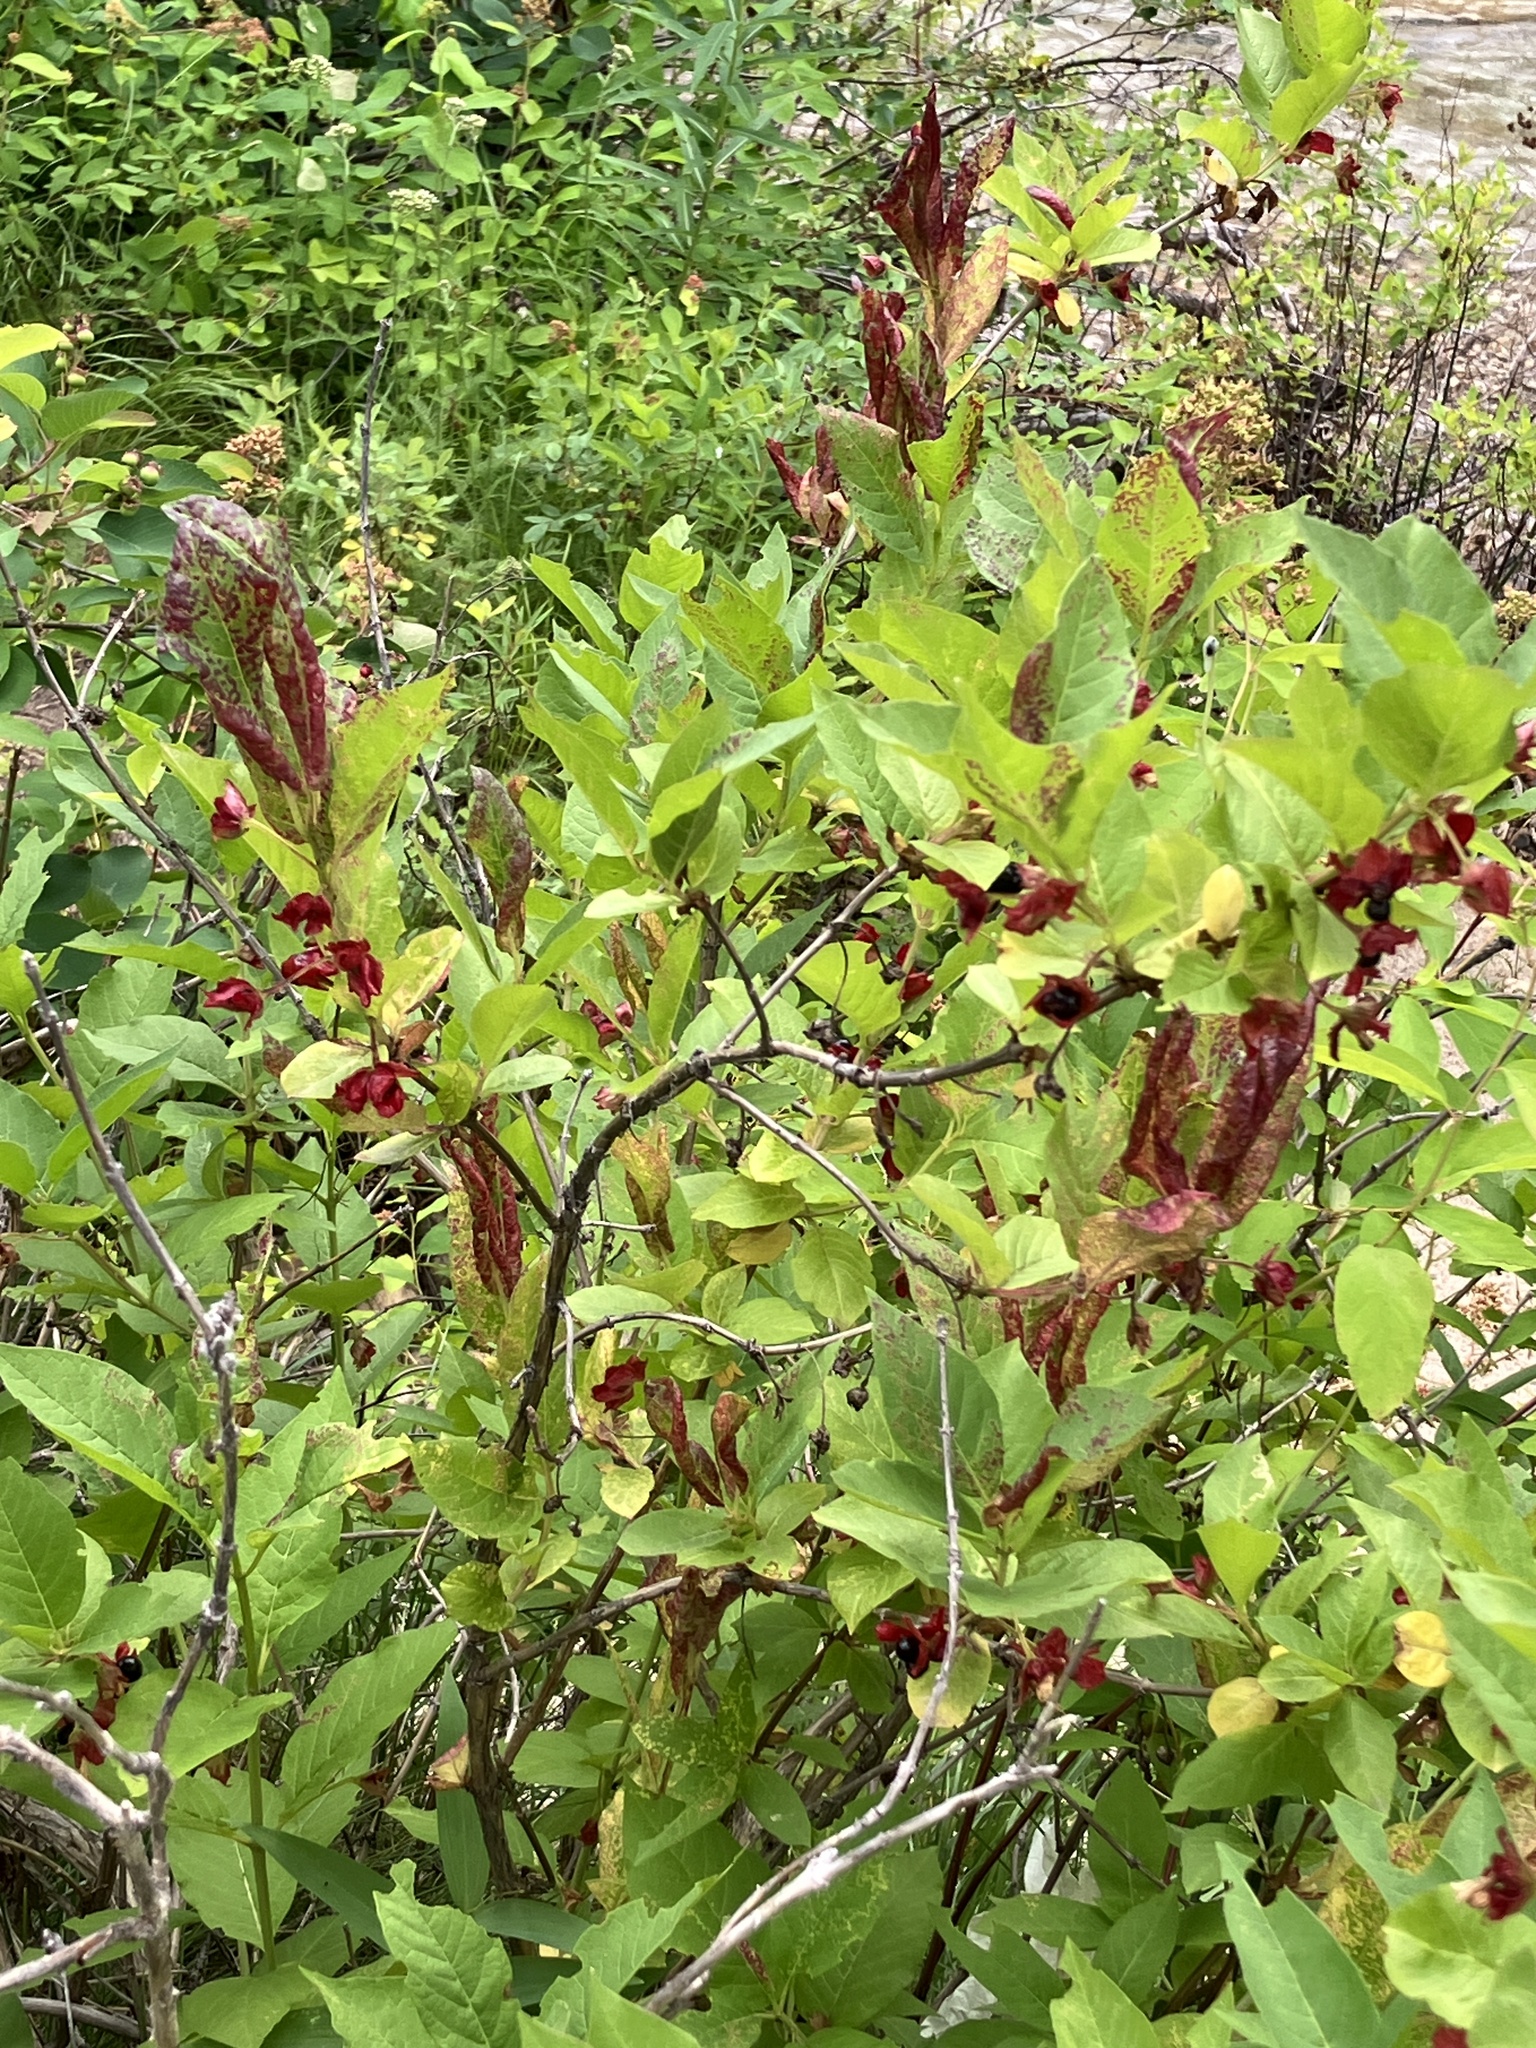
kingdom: Plantae
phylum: Tracheophyta
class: Magnoliopsida
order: Dipsacales
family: Caprifoliaceae
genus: Lonicera
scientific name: Lonicera involucrata
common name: Californian honeysuckle
